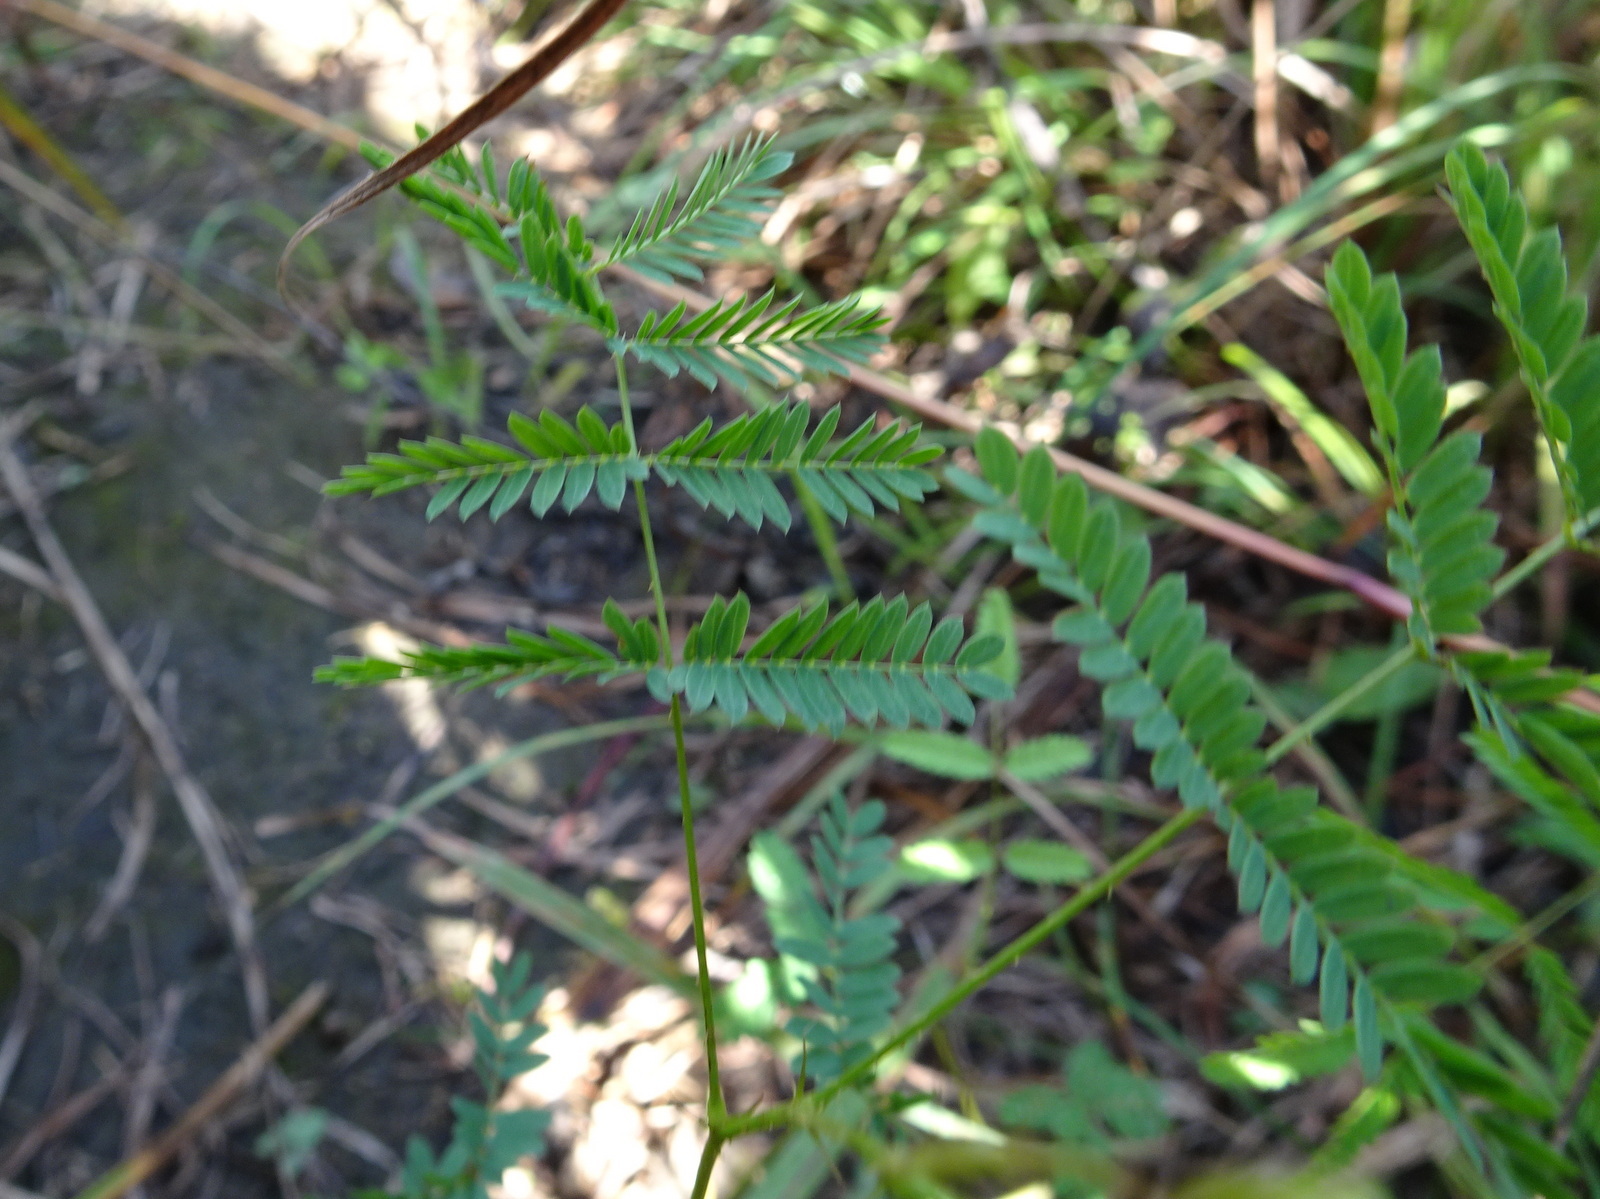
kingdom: Plantae
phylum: Tracheophyta
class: Magnoliopsida
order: Fabales
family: Fabaceae
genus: Mimosa
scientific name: Mimosa quadrivalvis
